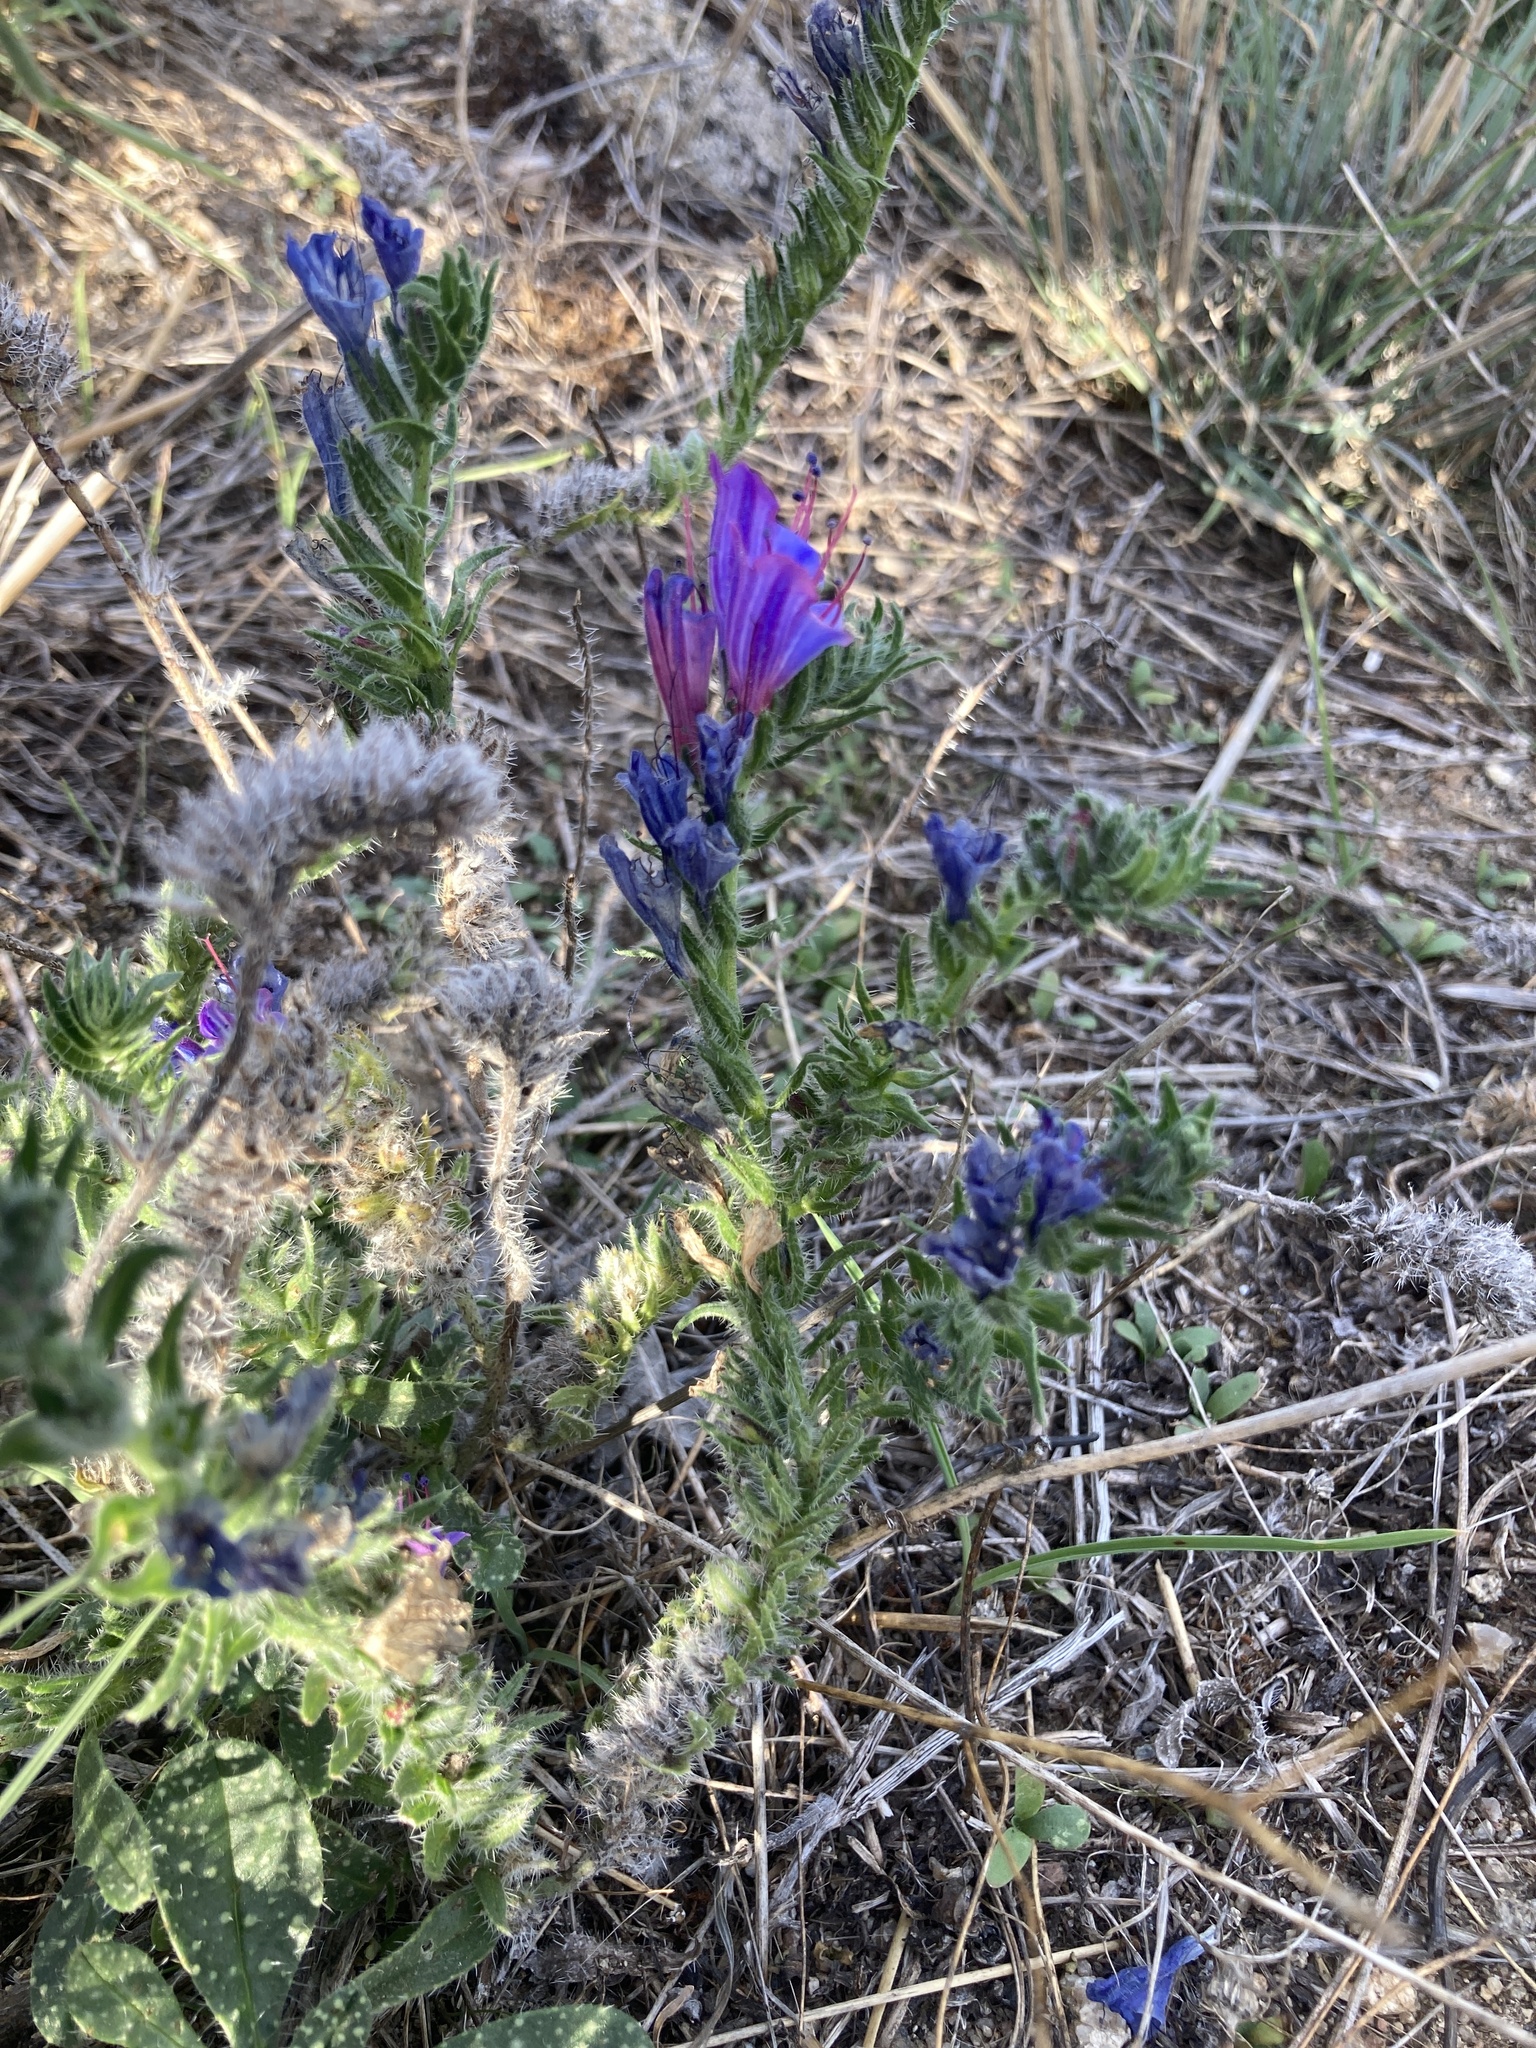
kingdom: Plantae
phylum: Tracheophyta
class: Magnoliopsida
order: Boraginales
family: Boraginaceae
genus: Echium
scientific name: Echium vulgare
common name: Common viper's bugloss
